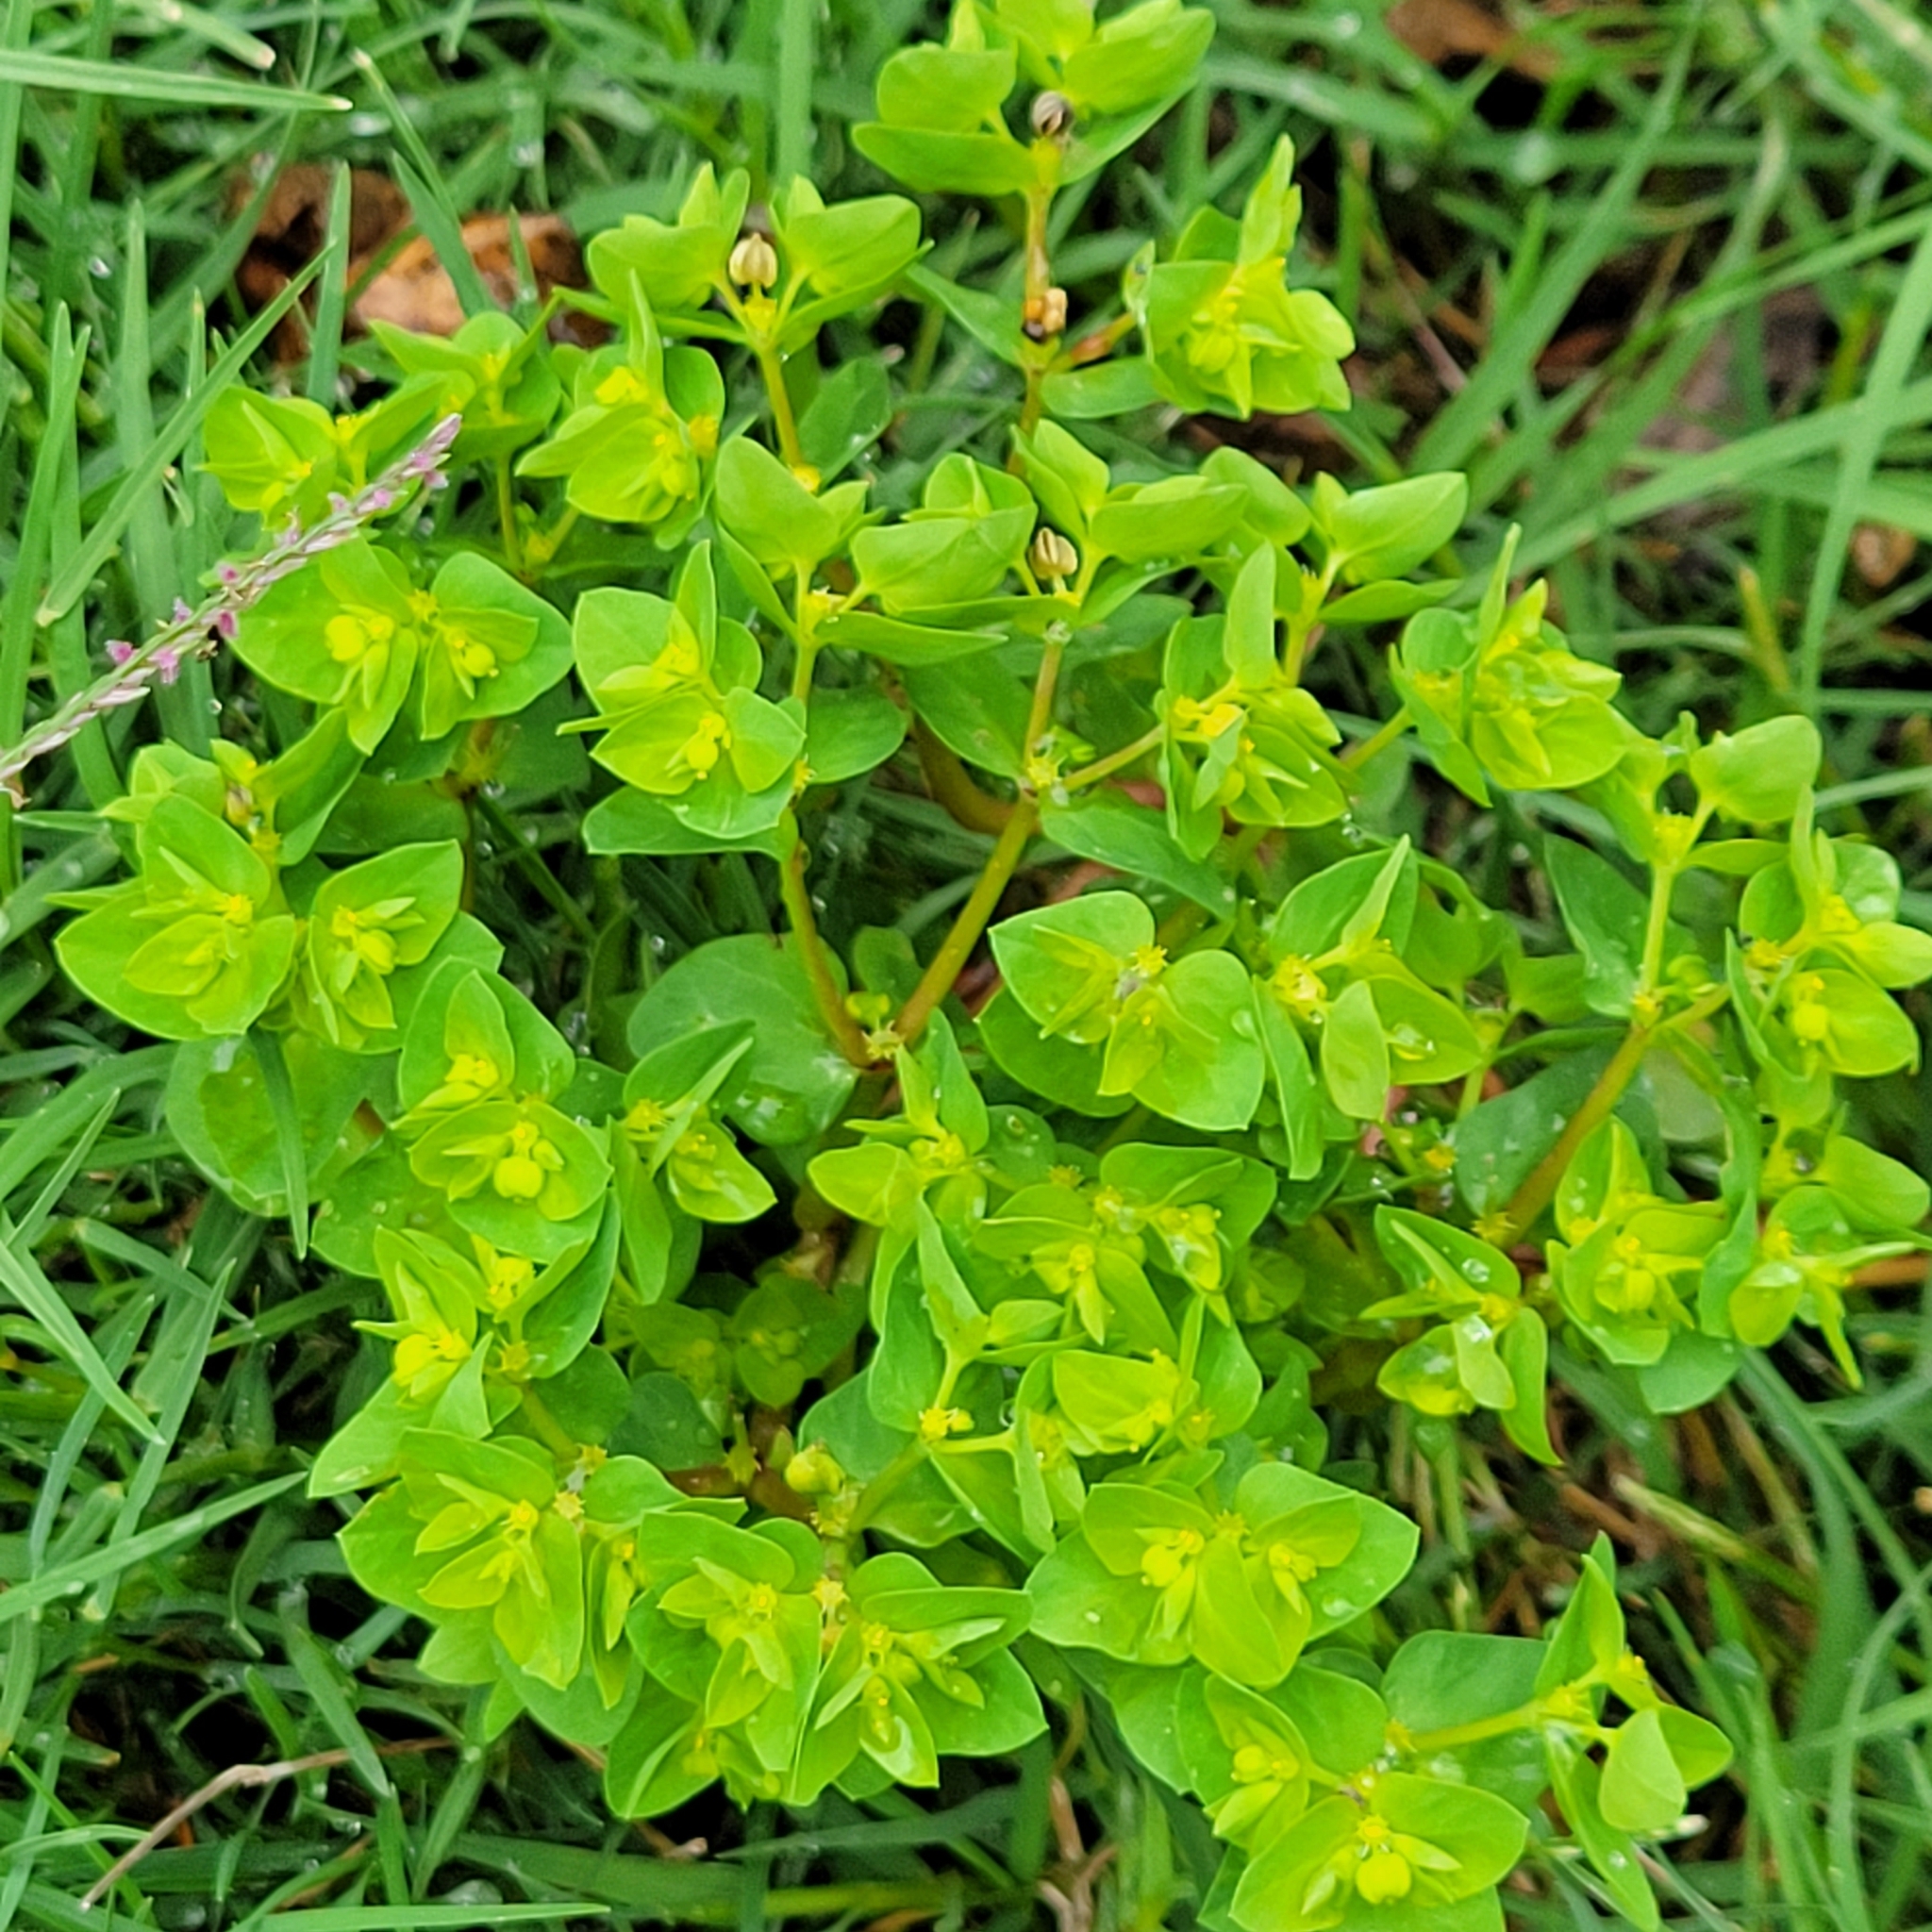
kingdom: Plantae
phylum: Tracheophyta
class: Magnoliopsida
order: Malpighiales
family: Euphorbiaceae
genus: Euphorbia
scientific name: Euphorbia peplus
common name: Petty spurge
